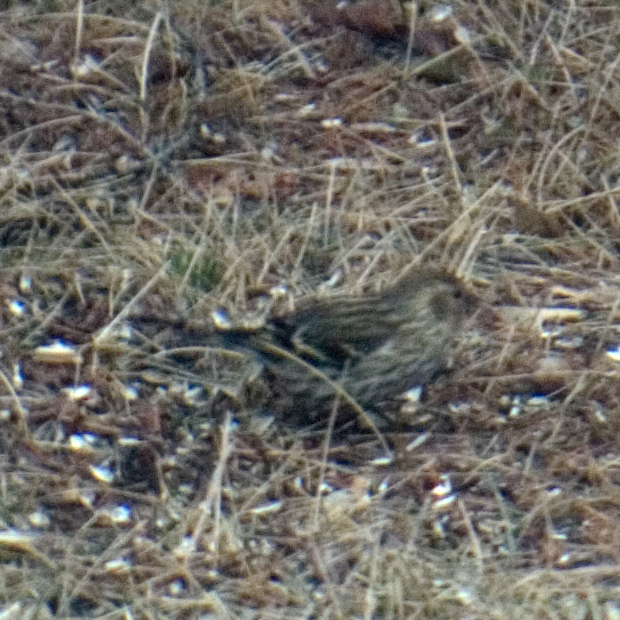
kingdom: Animalia
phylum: Chordata
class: Aves
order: Passeriformes
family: Fringillidae
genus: Spinus
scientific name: Spinus pinus
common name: Pine siskin
